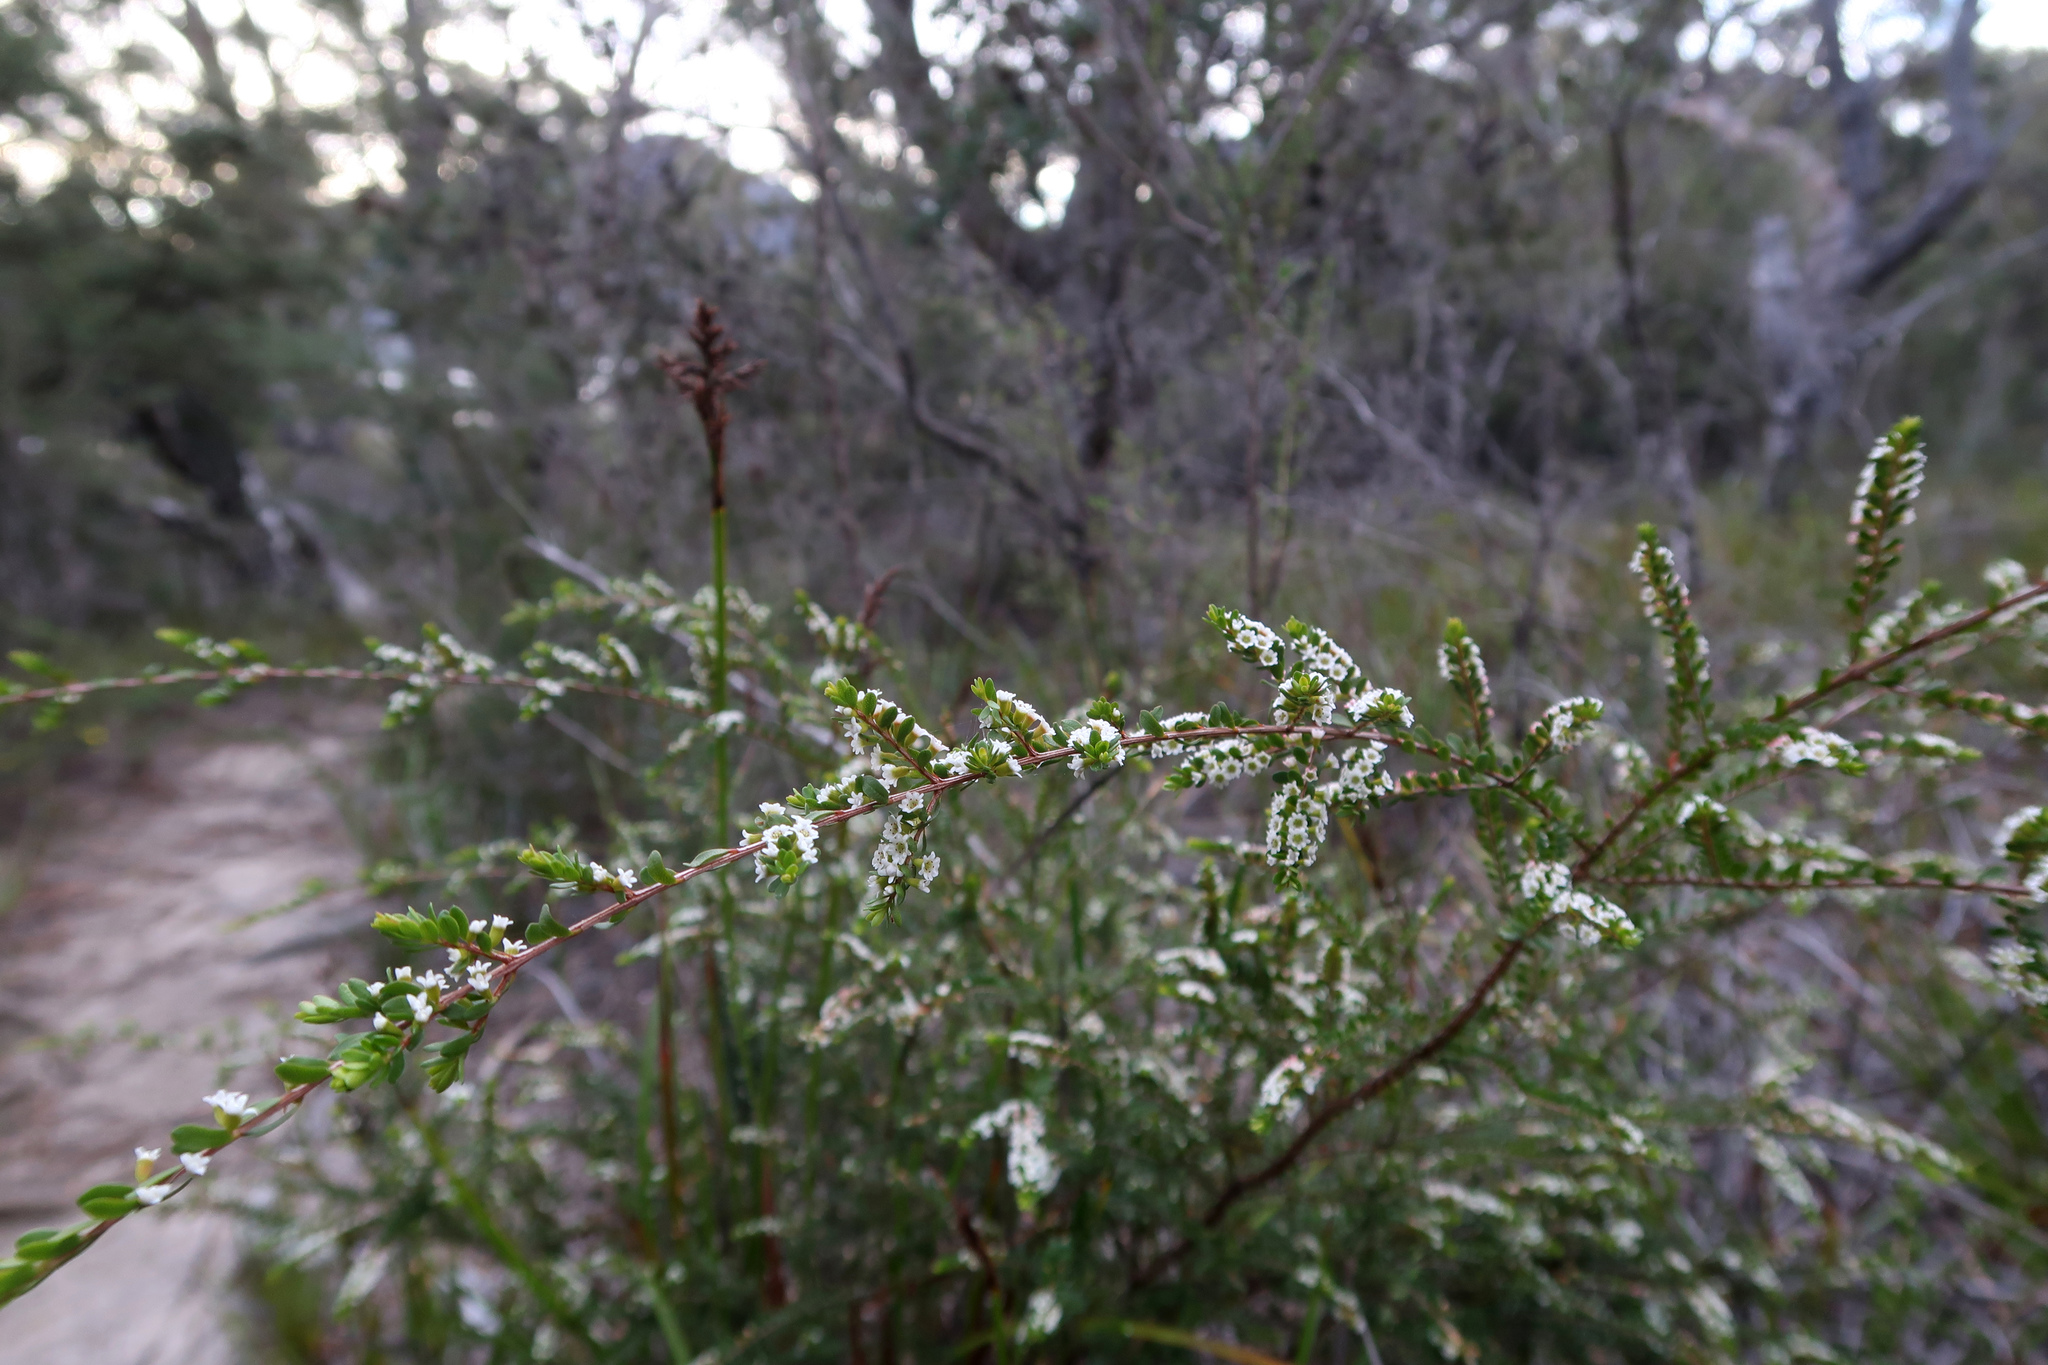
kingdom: Plantae
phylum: Tracheophyta
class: Magnoliopsida
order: Myrtales
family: Myrtaceae
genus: Thryptomene
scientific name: Thryptomene micrantha
